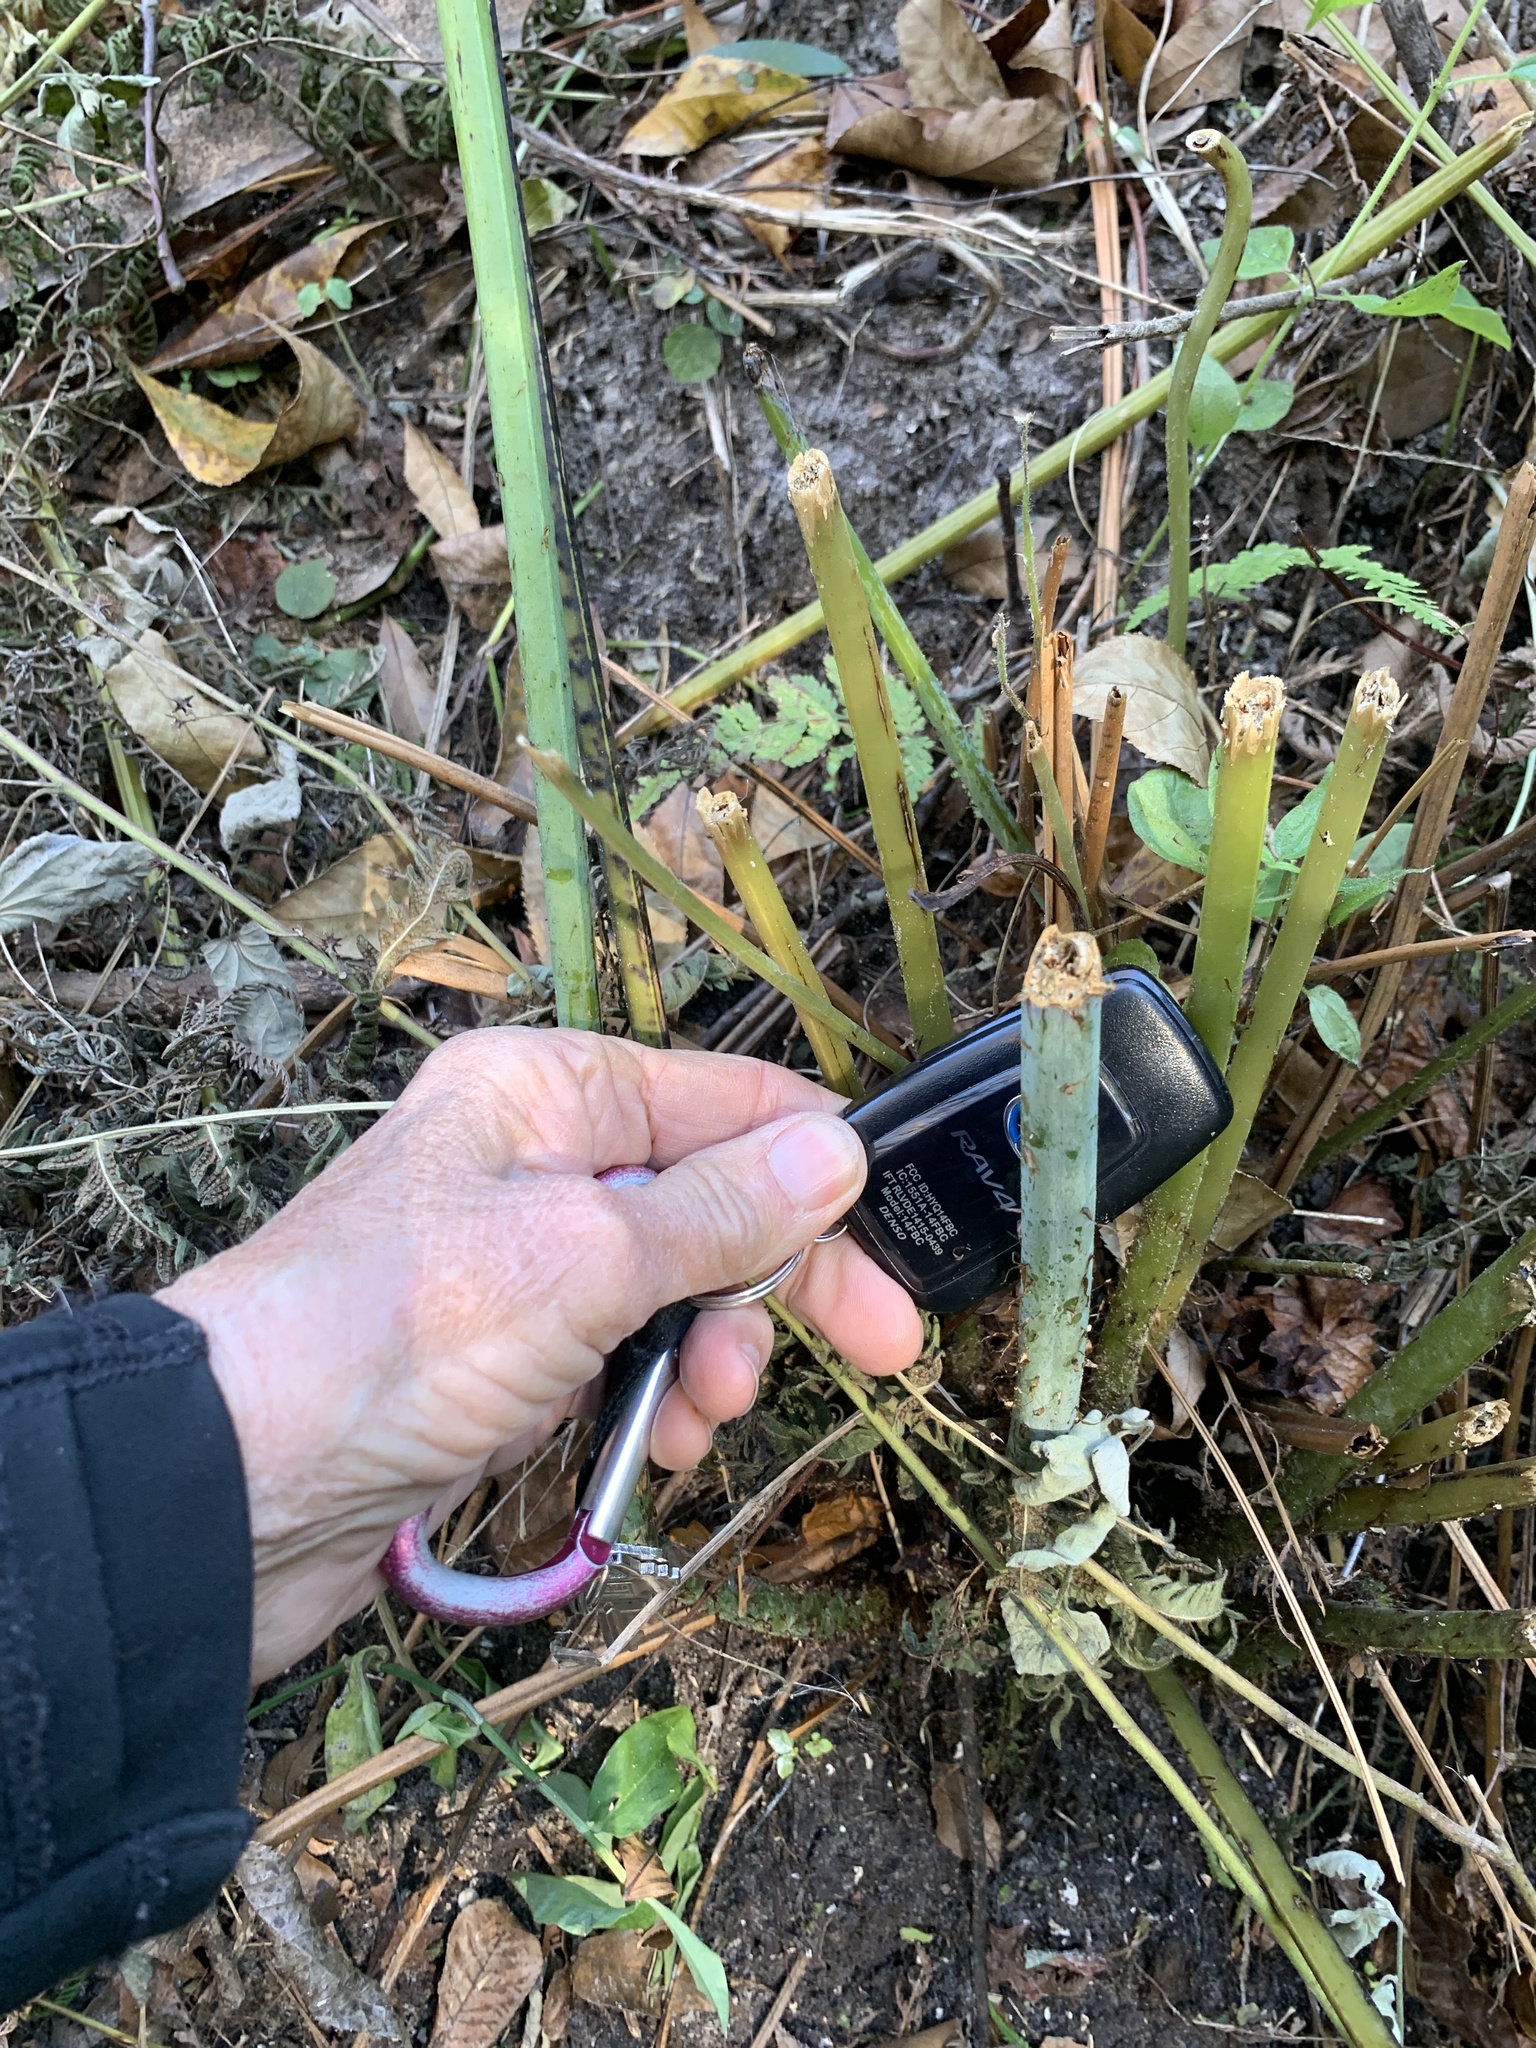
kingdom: Plantae
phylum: Tracheophyta
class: Polypodiopsida
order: Polypodiales
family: Thelypteridaceae
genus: Macrothelypteris
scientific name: Macrothelypteris torresiana
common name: Swordfern
